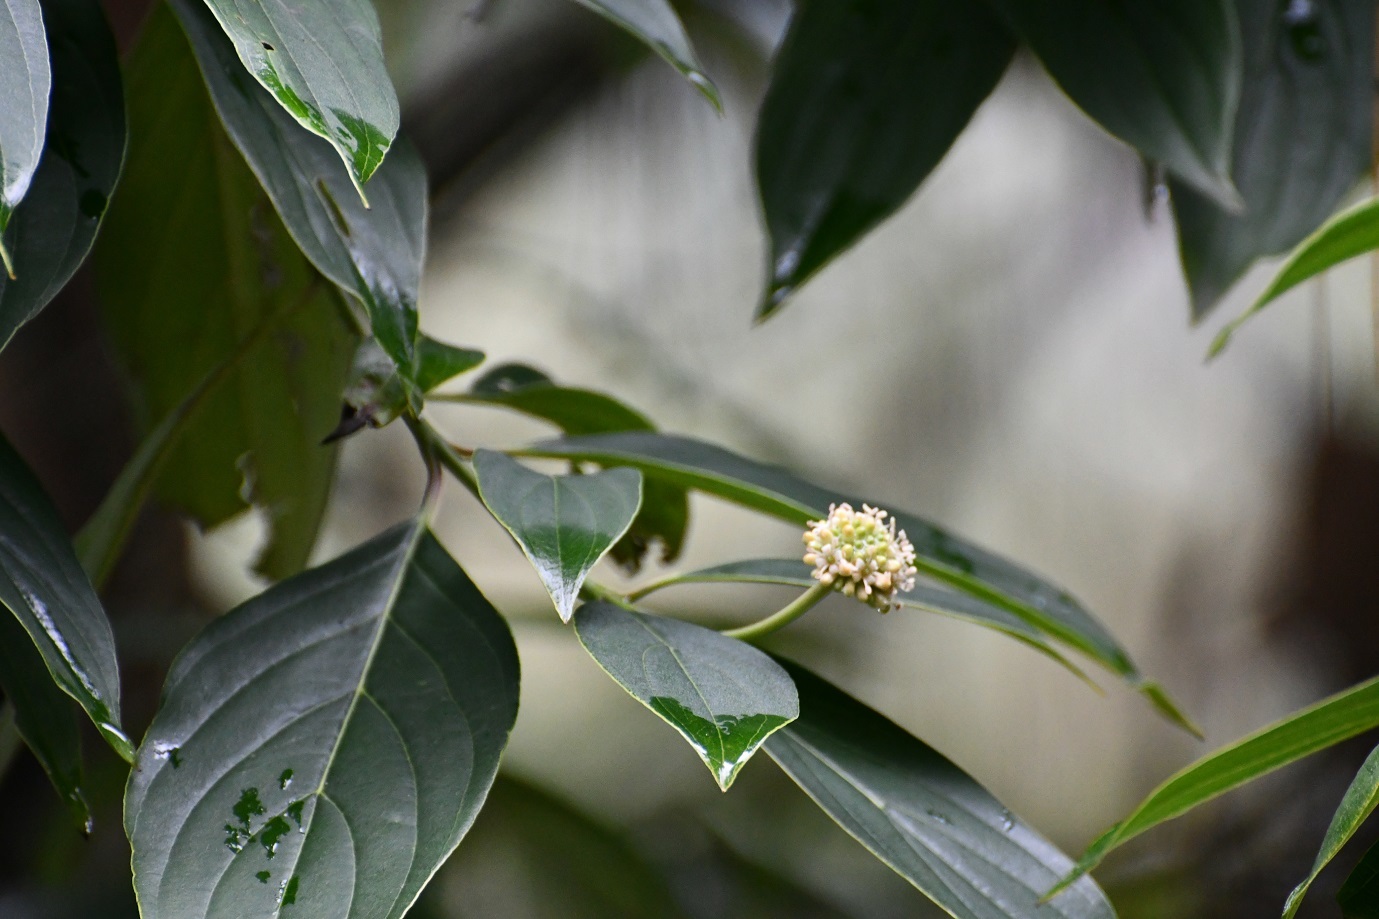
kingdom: Plantae
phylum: Tracheophyta
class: Magnoliopsida
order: Cornales
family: Cornaceae
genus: Cornus
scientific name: Cornus disciflora
